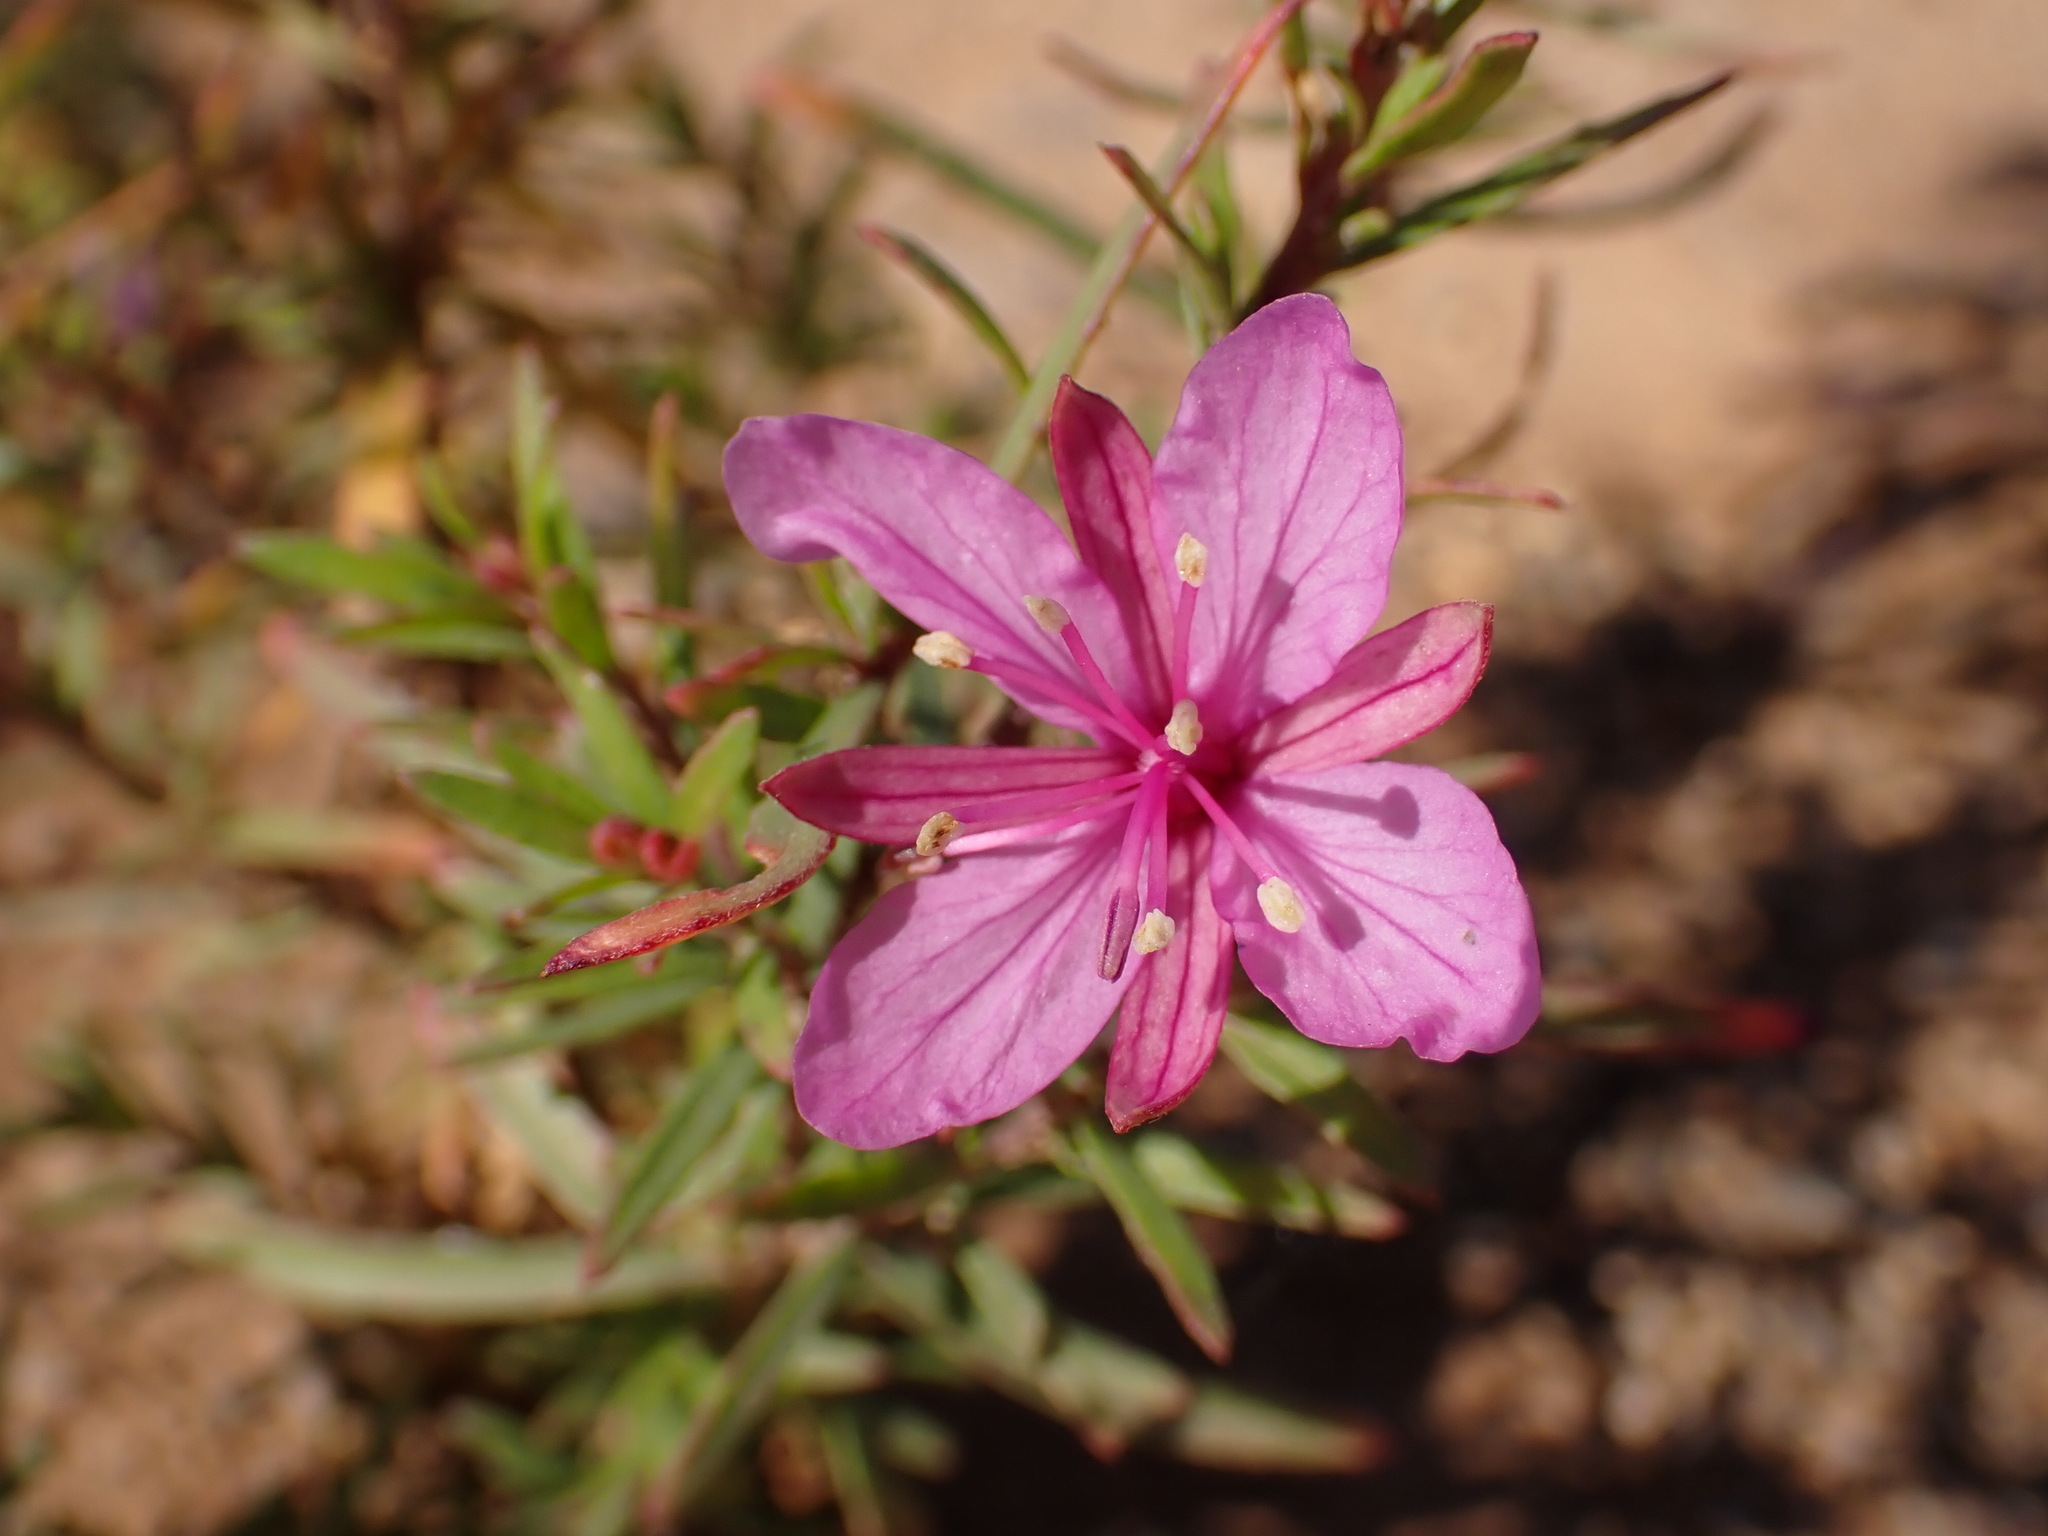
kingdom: Plantae
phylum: Tracheophyta
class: Magnoliopsida
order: Myrtales
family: Onagraceae
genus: Chamaenerion
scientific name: Chamaenerion dodonaei
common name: Rosemary-leaved willowherb
